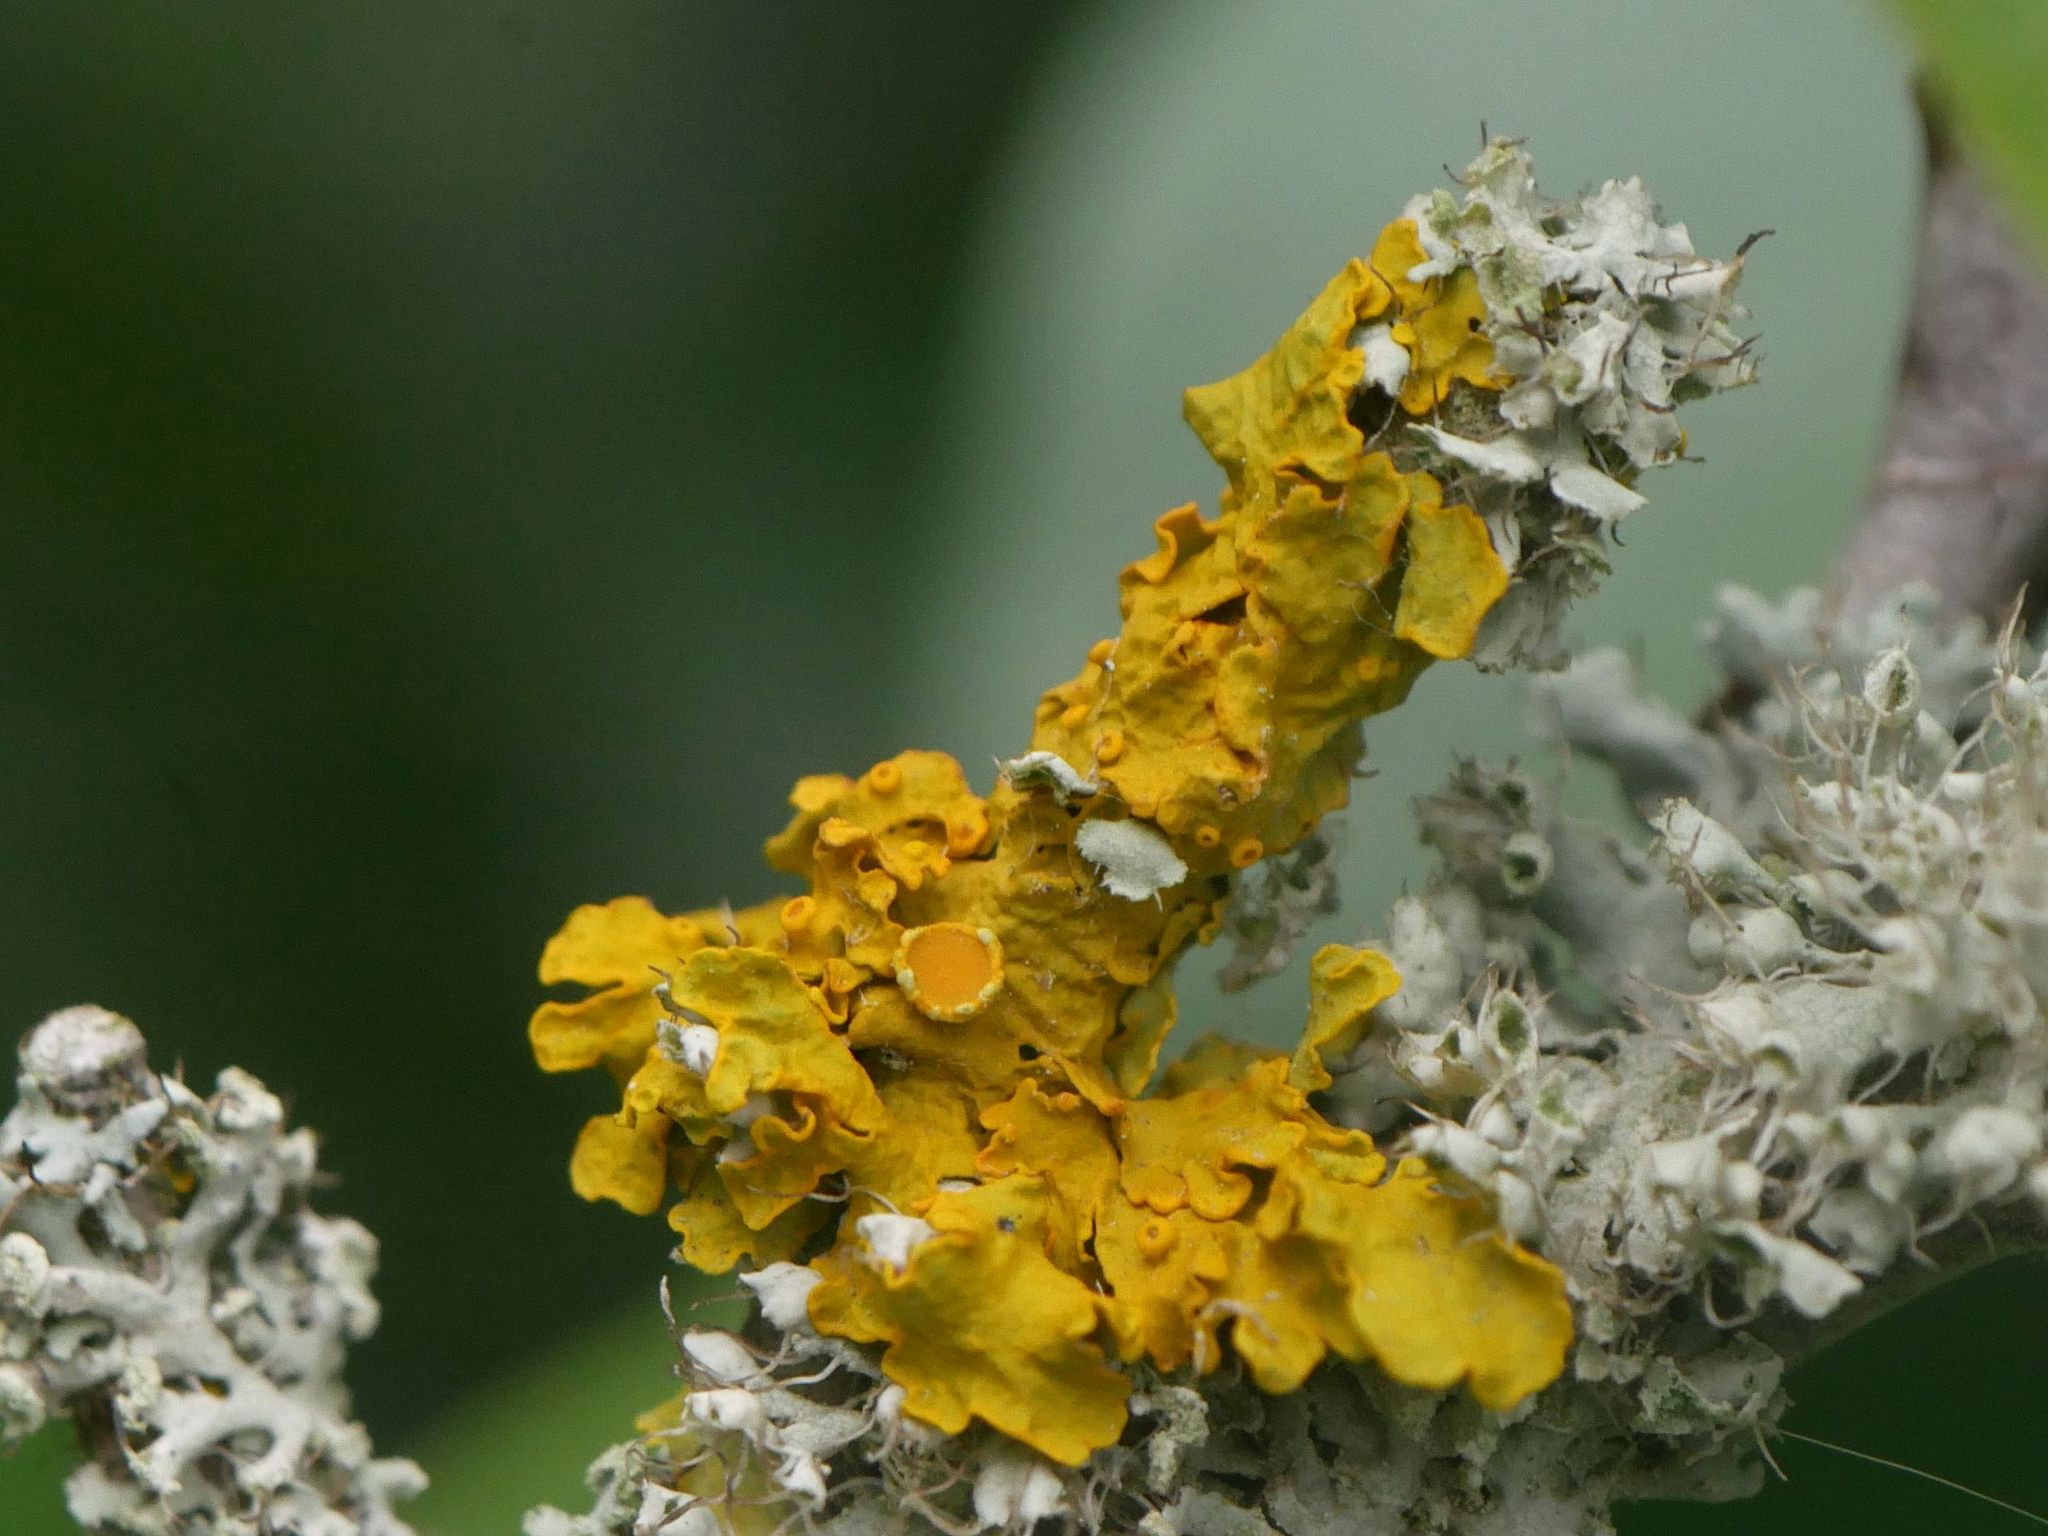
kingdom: Fungi
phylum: Ascomycota
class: Lecanoromycetes
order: Teloschistales
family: Teloschistaceae
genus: Xanthoria
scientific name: Xanthoria parietina
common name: Common orange lichen
